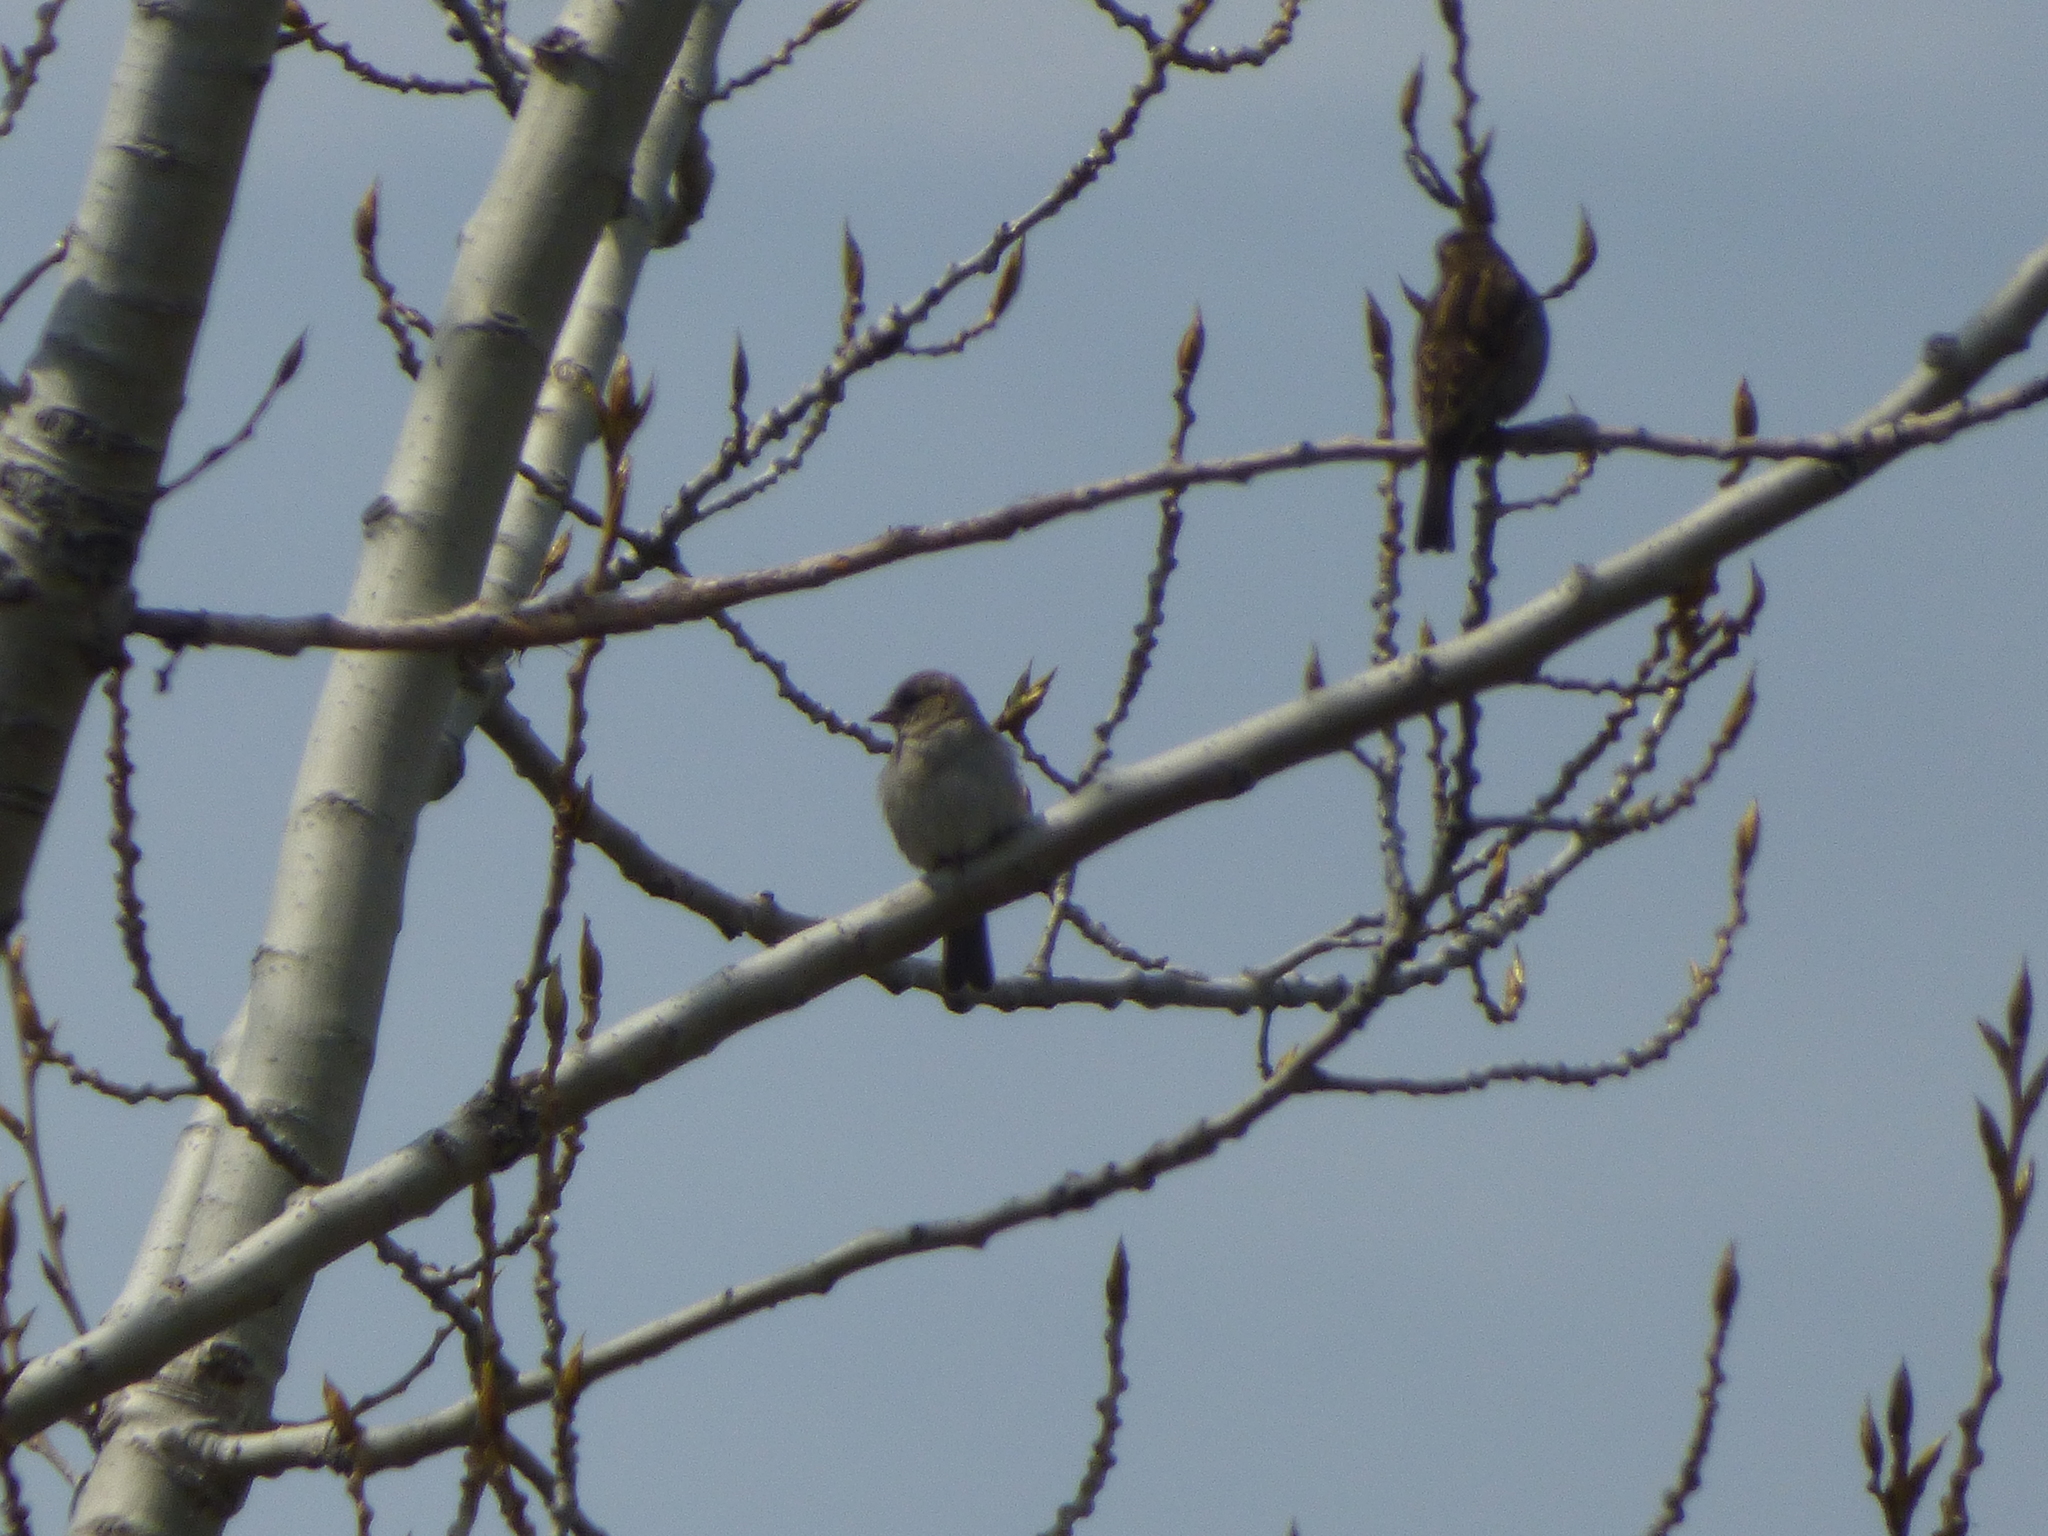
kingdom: Animalia
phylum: Chordata
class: Aves
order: Passeriformes
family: Passeridae
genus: Passer
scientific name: Passer domesticus
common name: House sparrow
